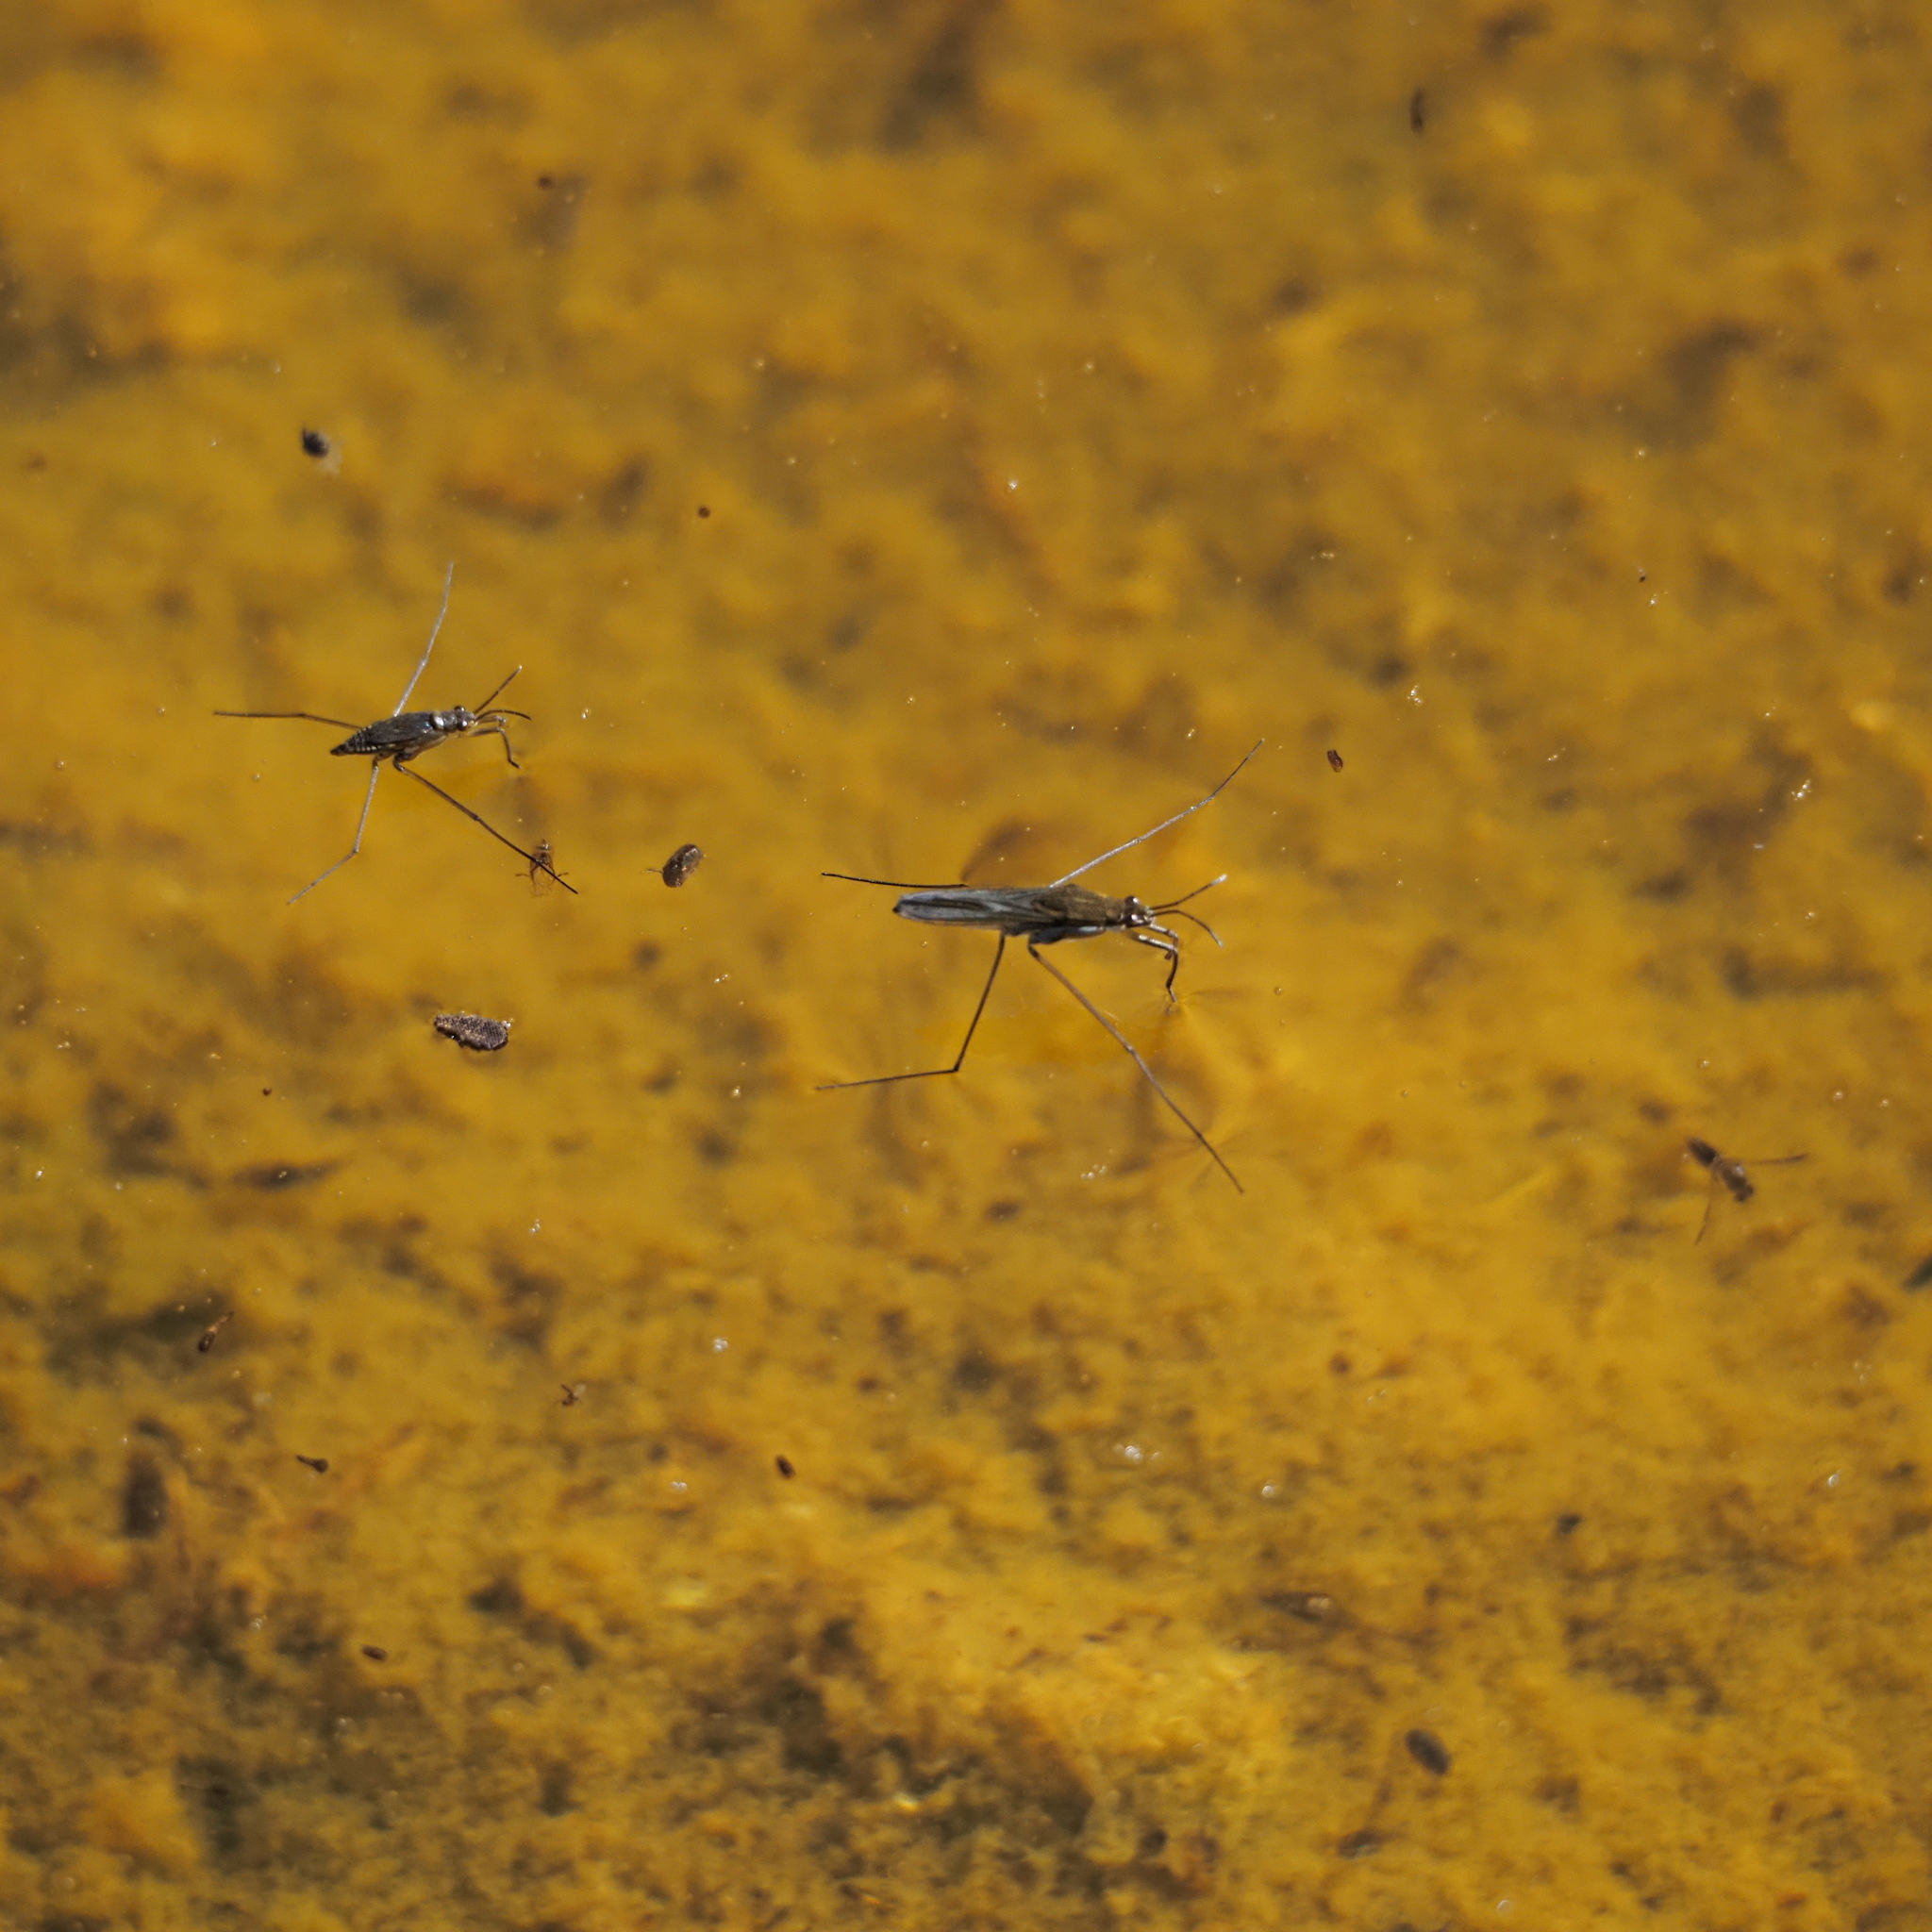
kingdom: Animalia
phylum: Arthropoda
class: Insecta
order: Hemiptera
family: Gerridae
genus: Gerris
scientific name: Gerris thoracicus
